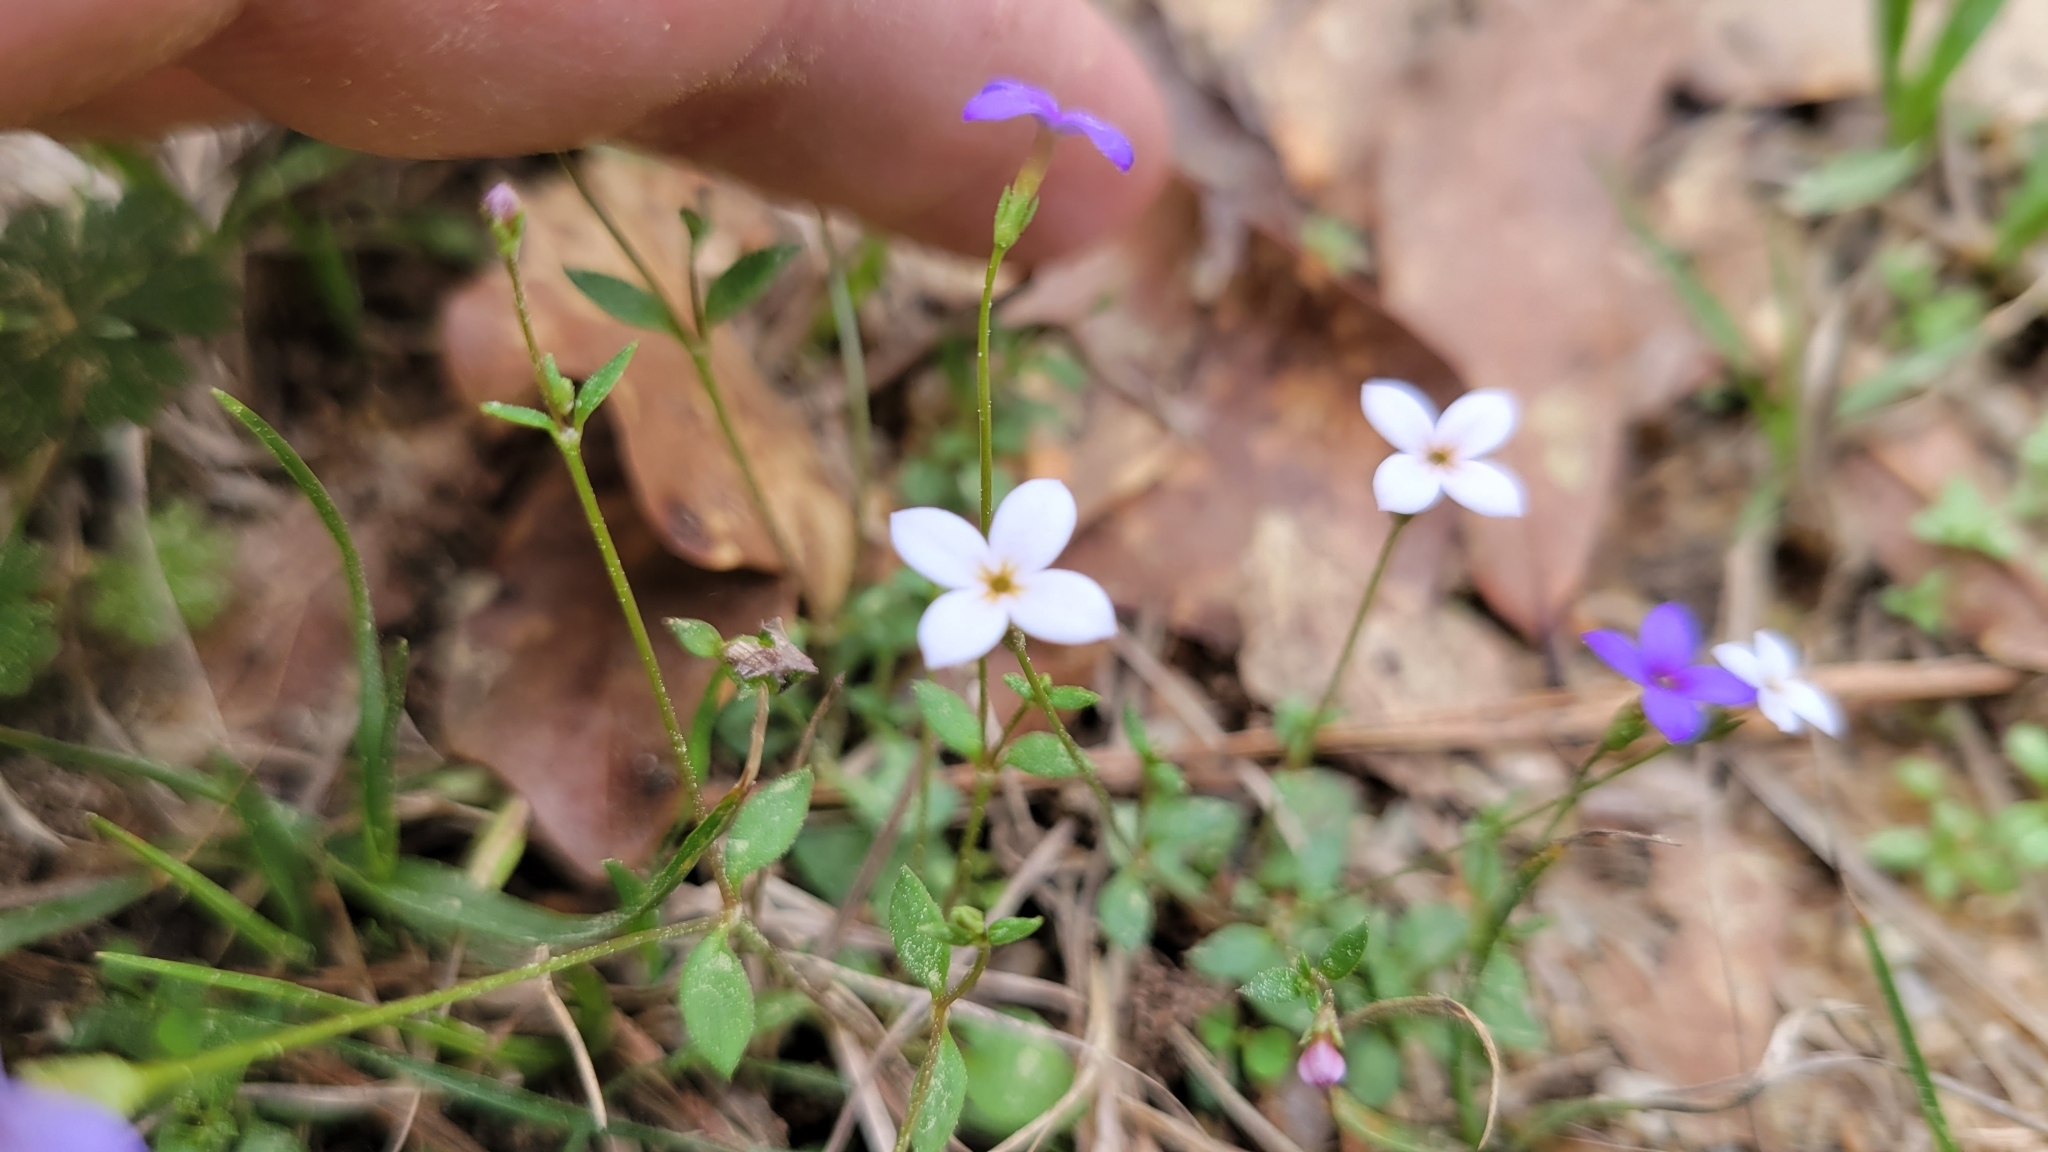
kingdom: Plantae
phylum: Tracheophyta
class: Magnoliopsida
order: Gentianales
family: Rubiaceae
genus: Houstonia
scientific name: Houstonia pusilla
